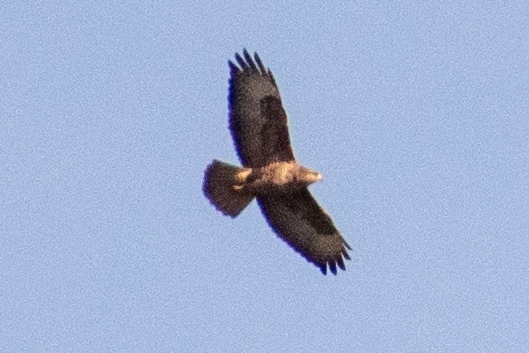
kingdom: Animalia
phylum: Chordata
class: Aves
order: Accipitriformes
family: Accipitridae
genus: Buteo
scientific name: Buteo buteo
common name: Common buzzard
